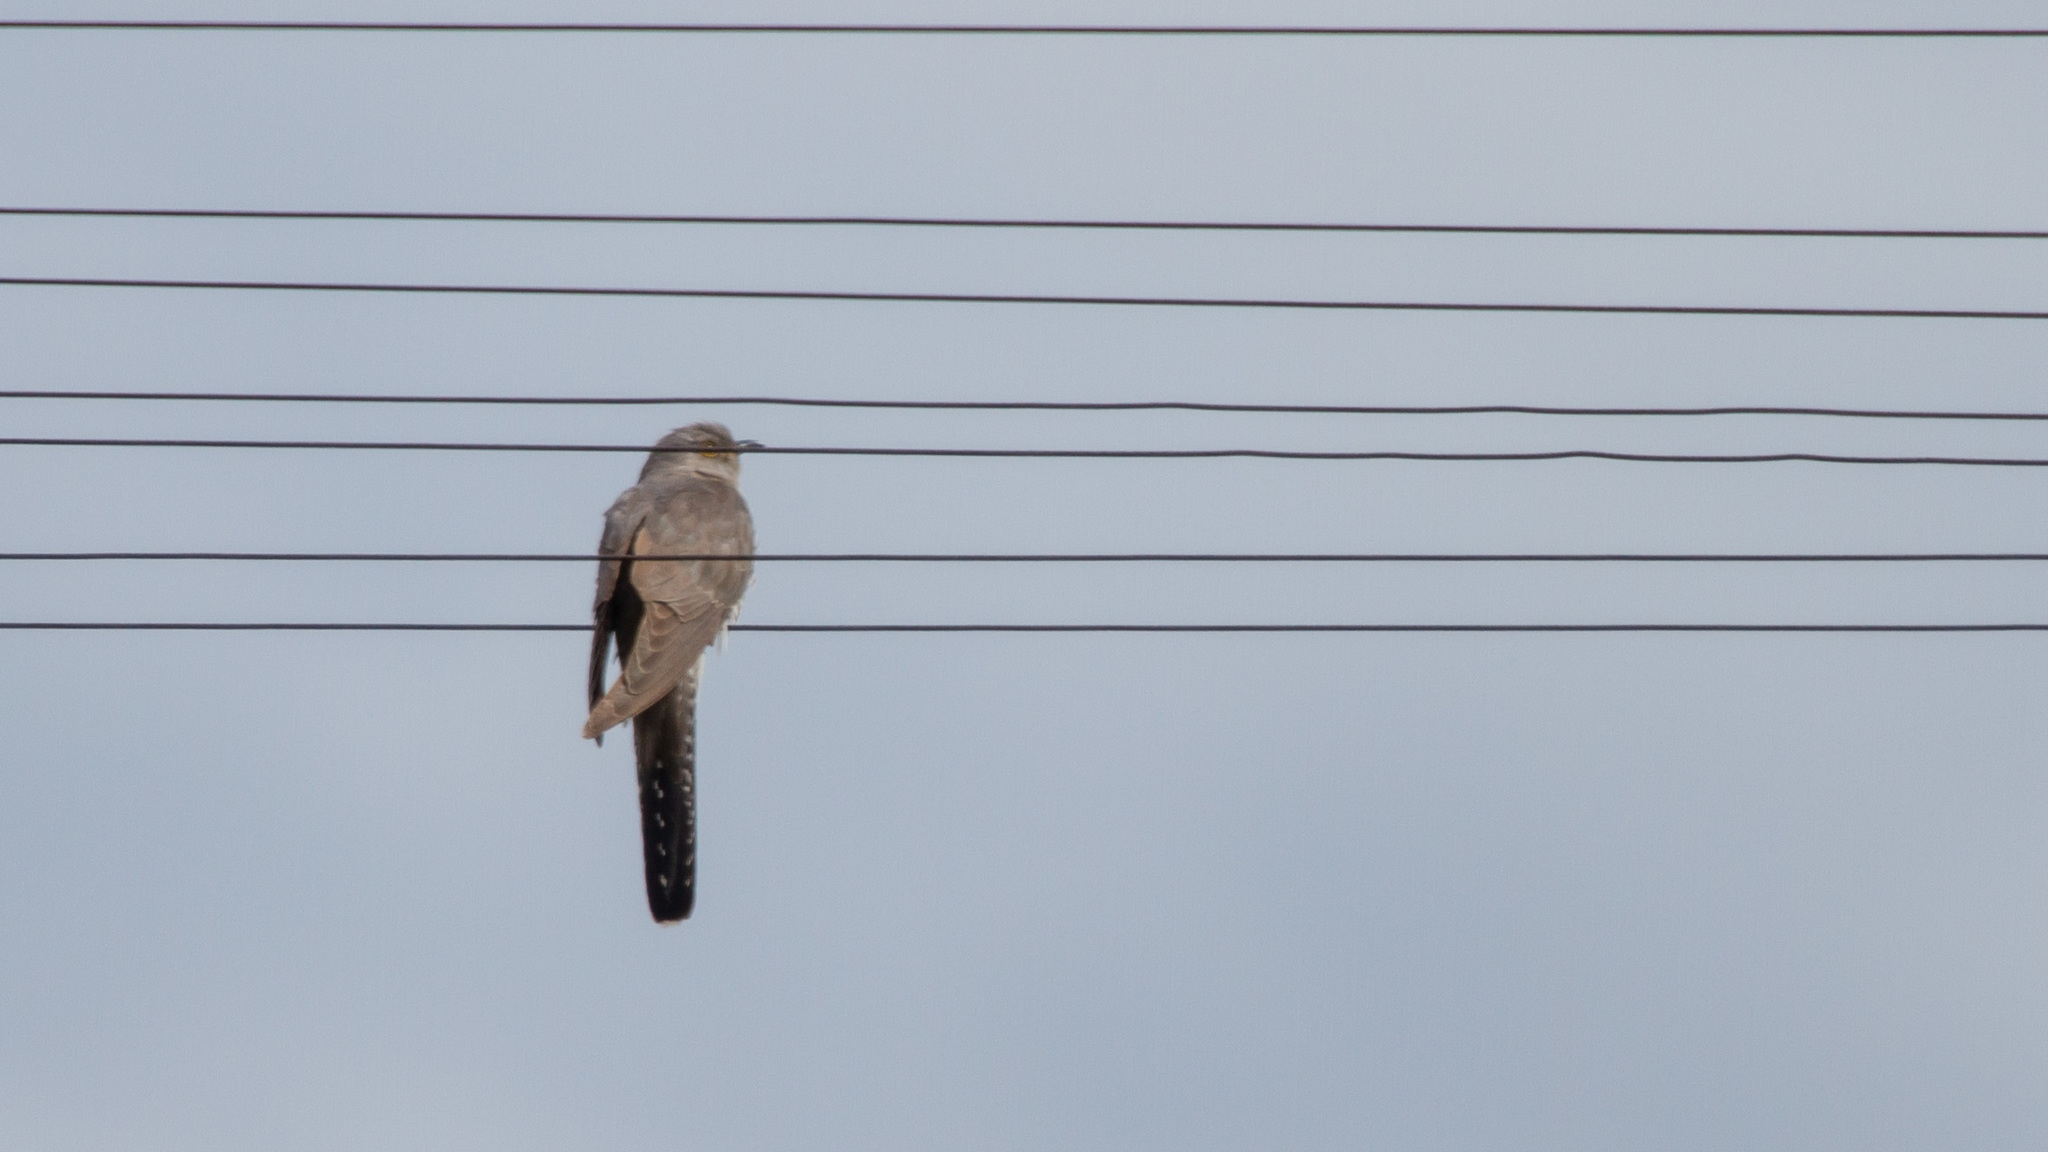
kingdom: Animalia
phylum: Chordata
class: Aves
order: Cuculiformes
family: Cuculidae
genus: Cuculus
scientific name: Cuculus canorus
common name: Common cuckoo
